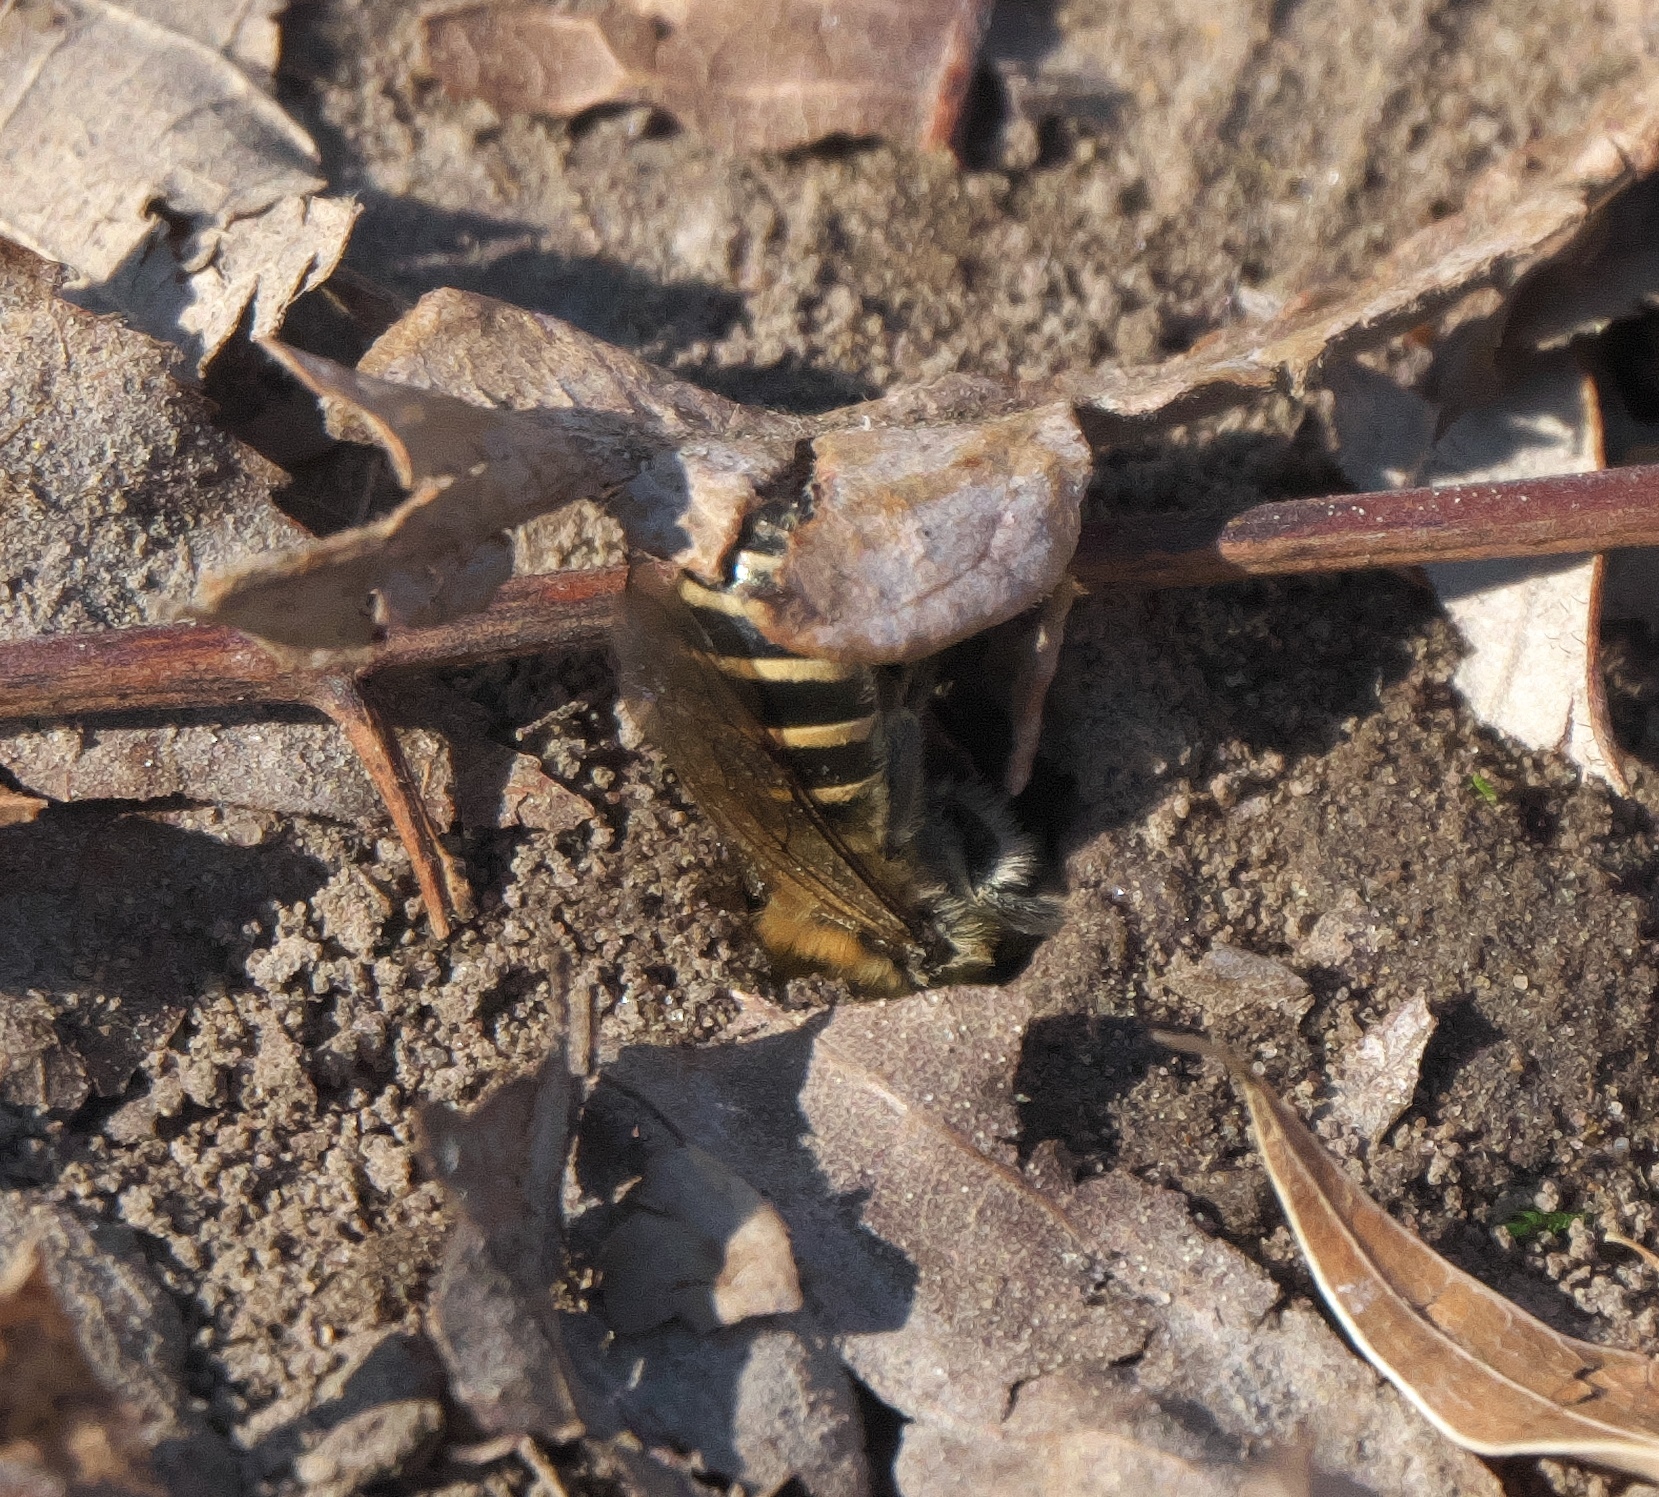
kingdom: Animalia
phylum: Arthropoda
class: Insecta
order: Hymenoptera
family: Colletidae
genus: Colletes
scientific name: Colletes inaequalis
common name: Unequal cellophane bee
